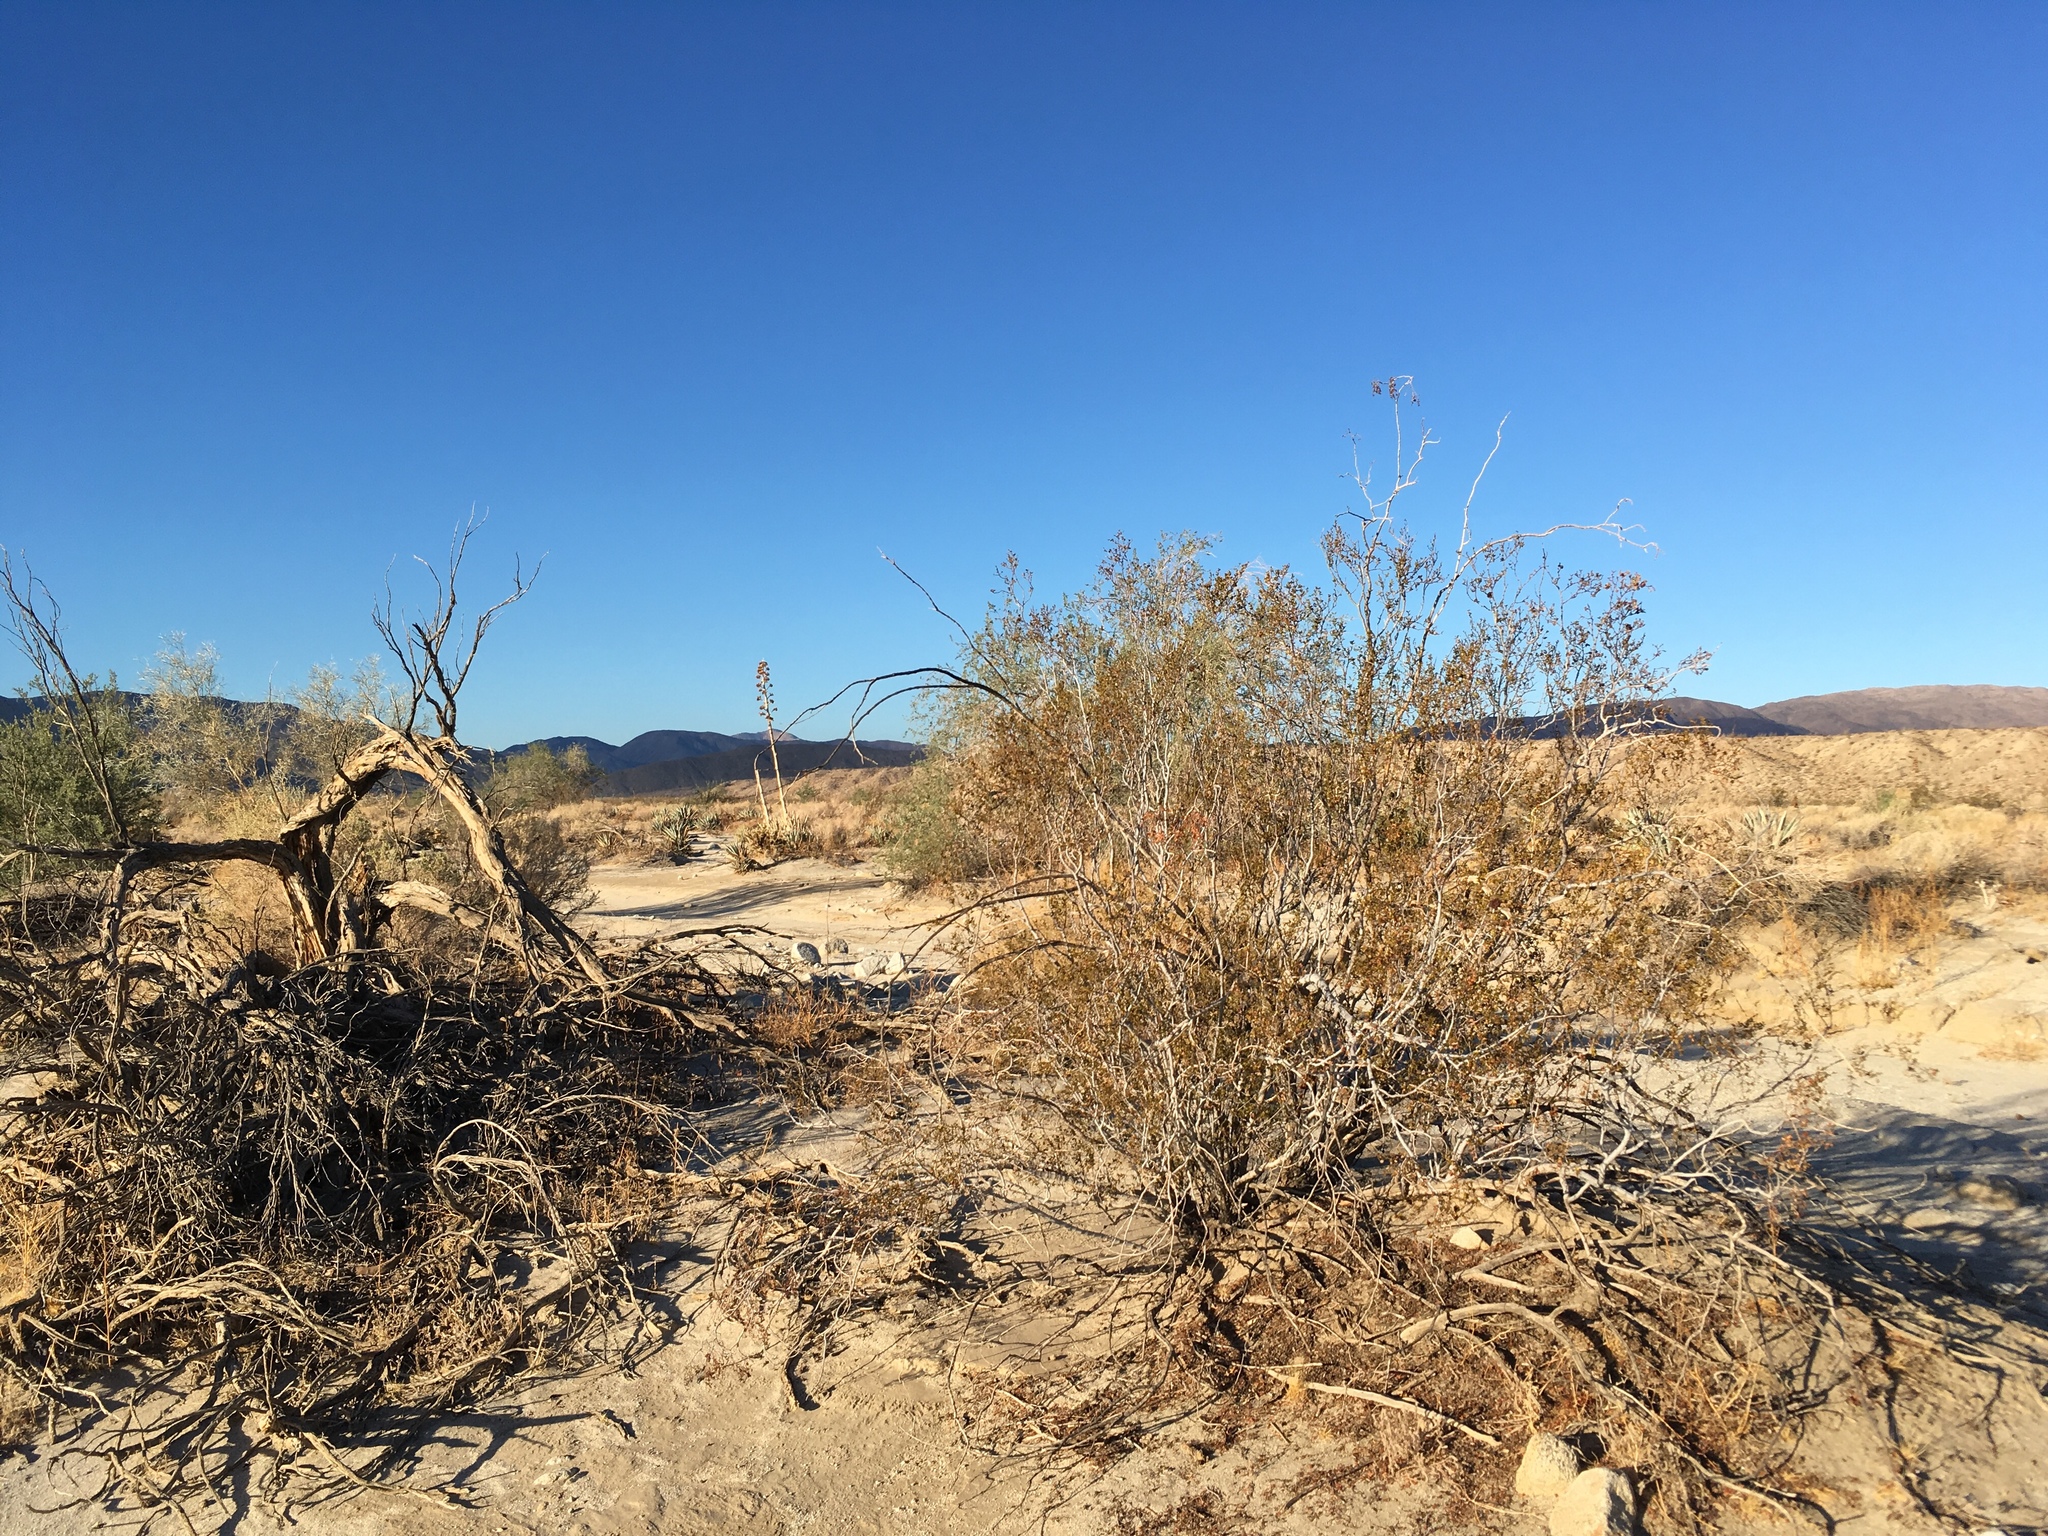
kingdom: Plantae
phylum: Tracheophyta
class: Magnoliopsida
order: Zygophyllales
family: Zygophyllaceae
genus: Larrea
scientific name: Larrea tridentata
